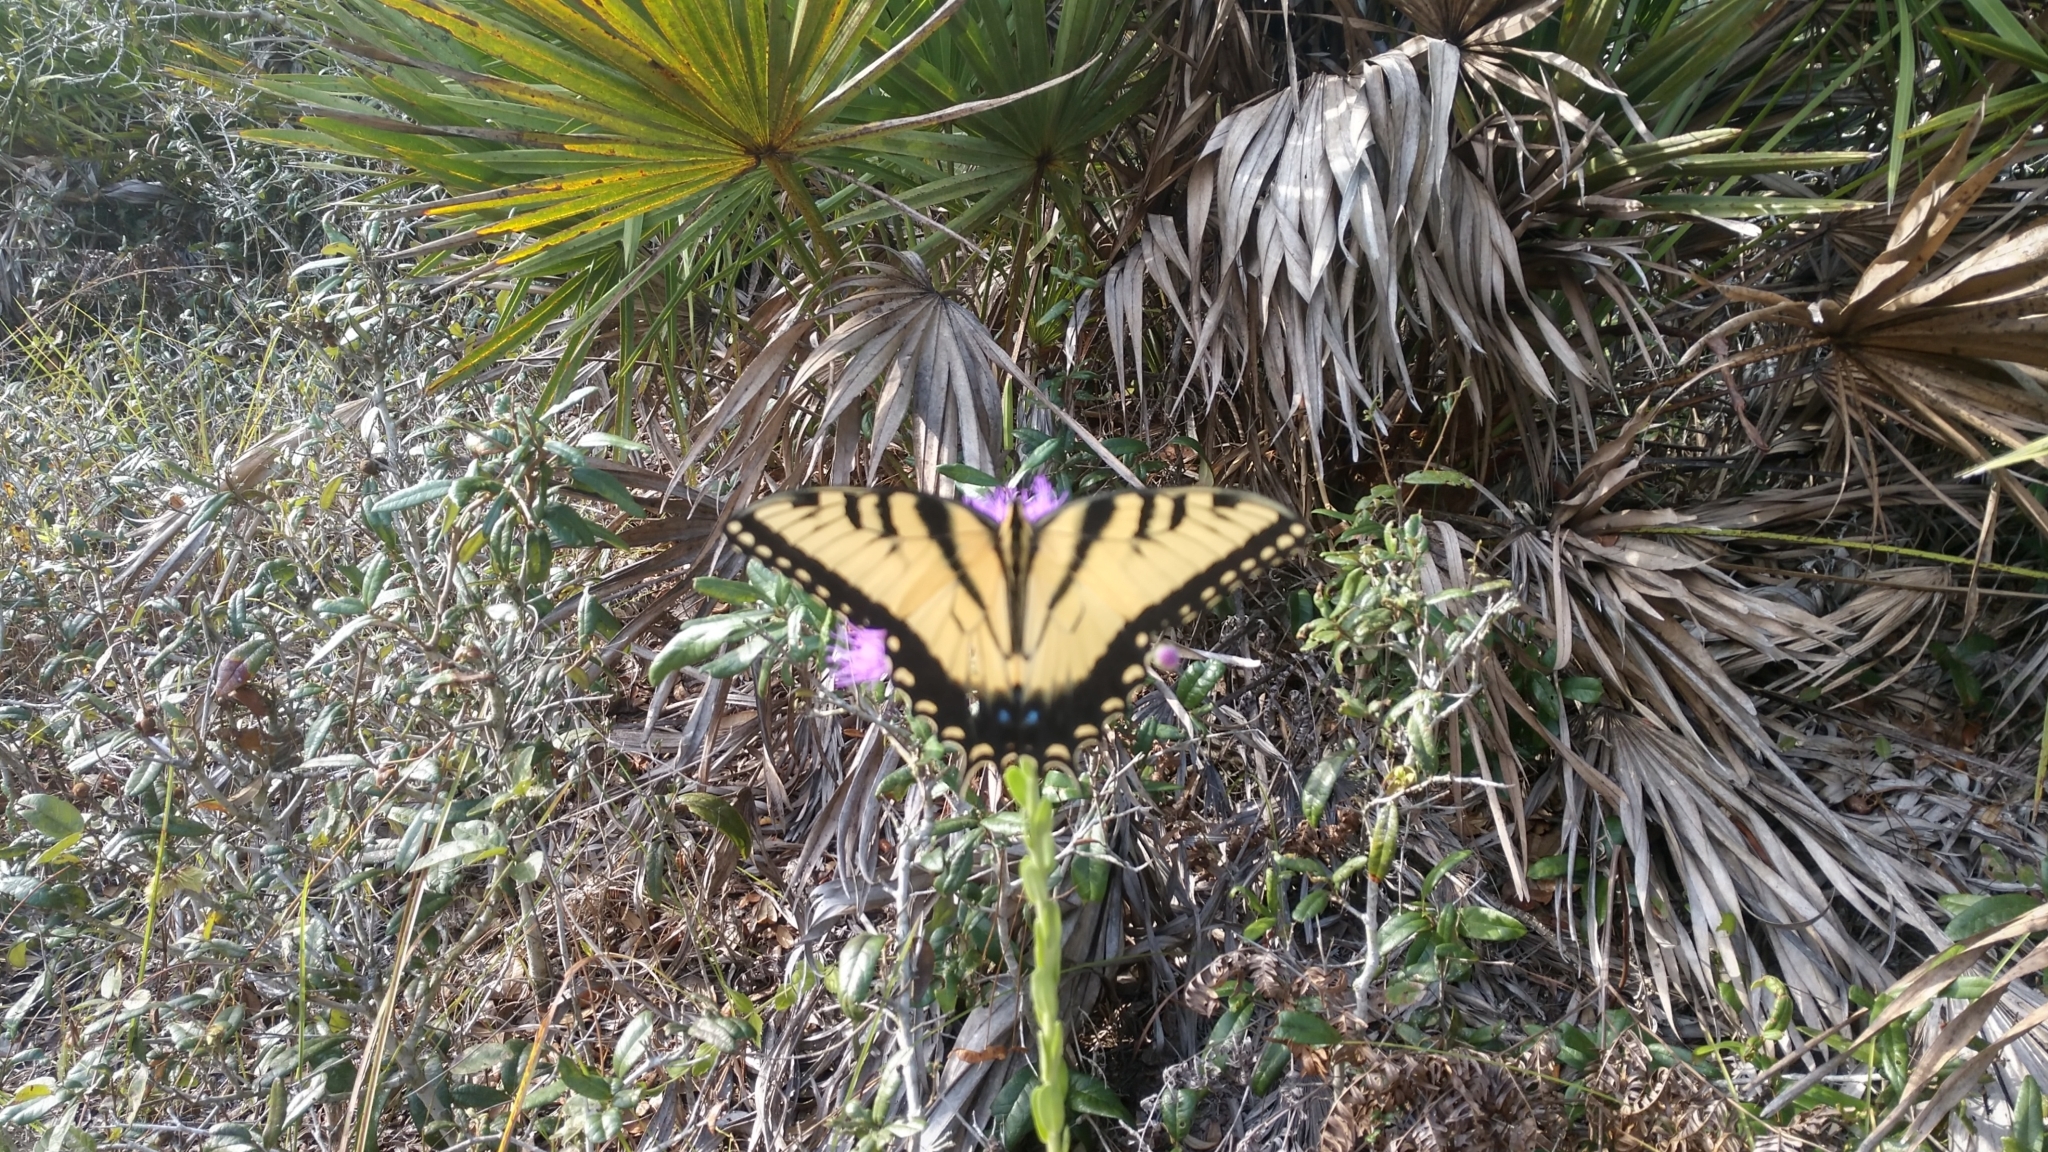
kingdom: Animalia
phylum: Arthropoda
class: Insecta
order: Lepidoptera
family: Papilionidae
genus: Papilio
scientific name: Papilio glaucus
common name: Tiger swallowtail
